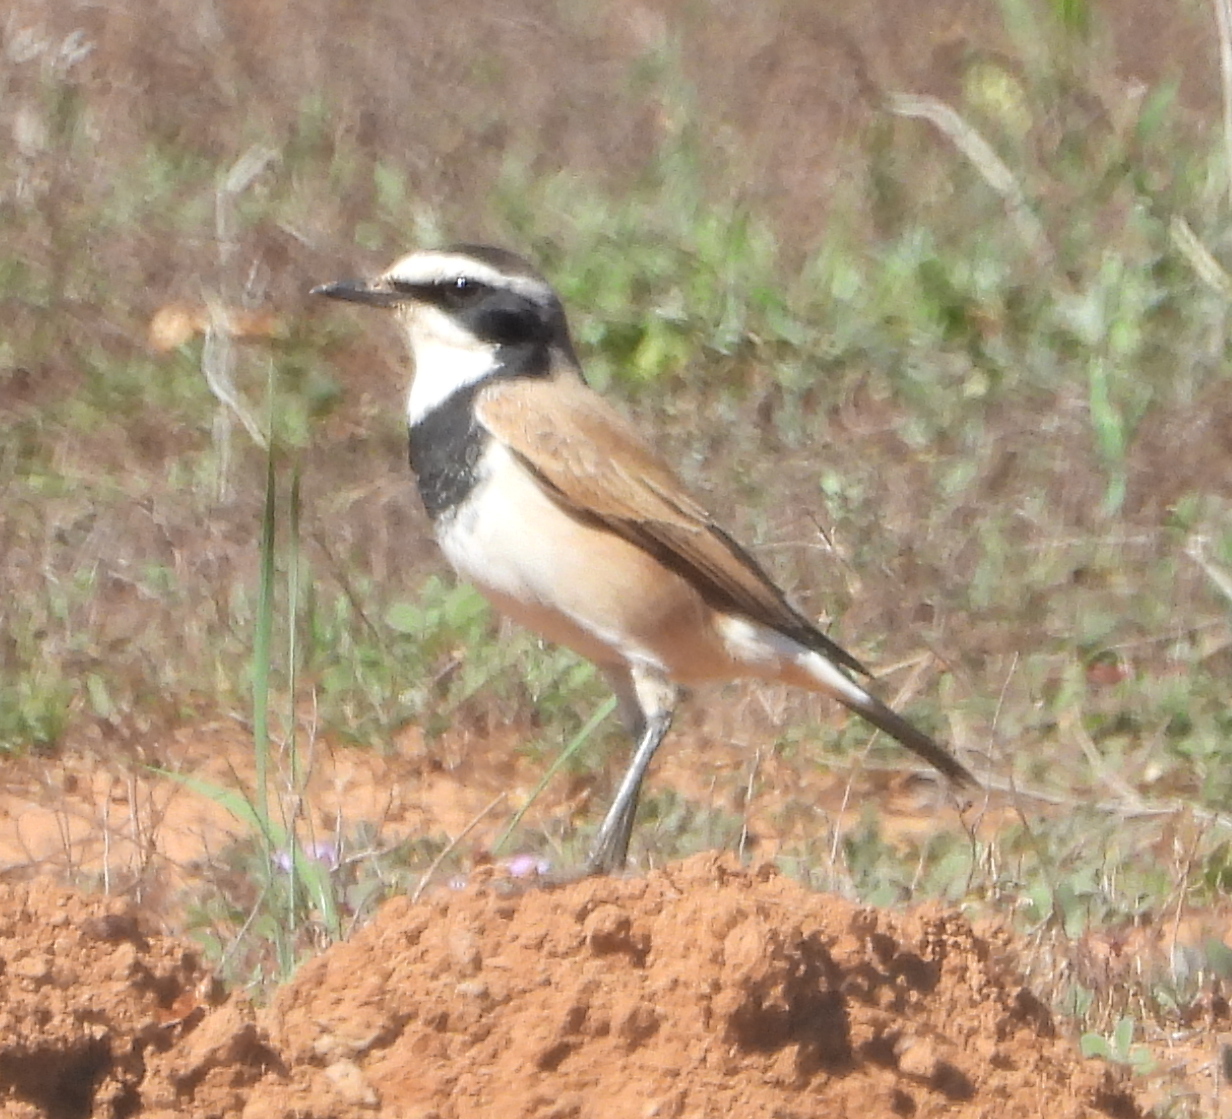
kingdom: Animalia
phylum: Chordata
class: Aves
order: Passeriformes
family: Muscicapidae
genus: Oenanthe
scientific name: Oenanthe pileata
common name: Capped wheatear
